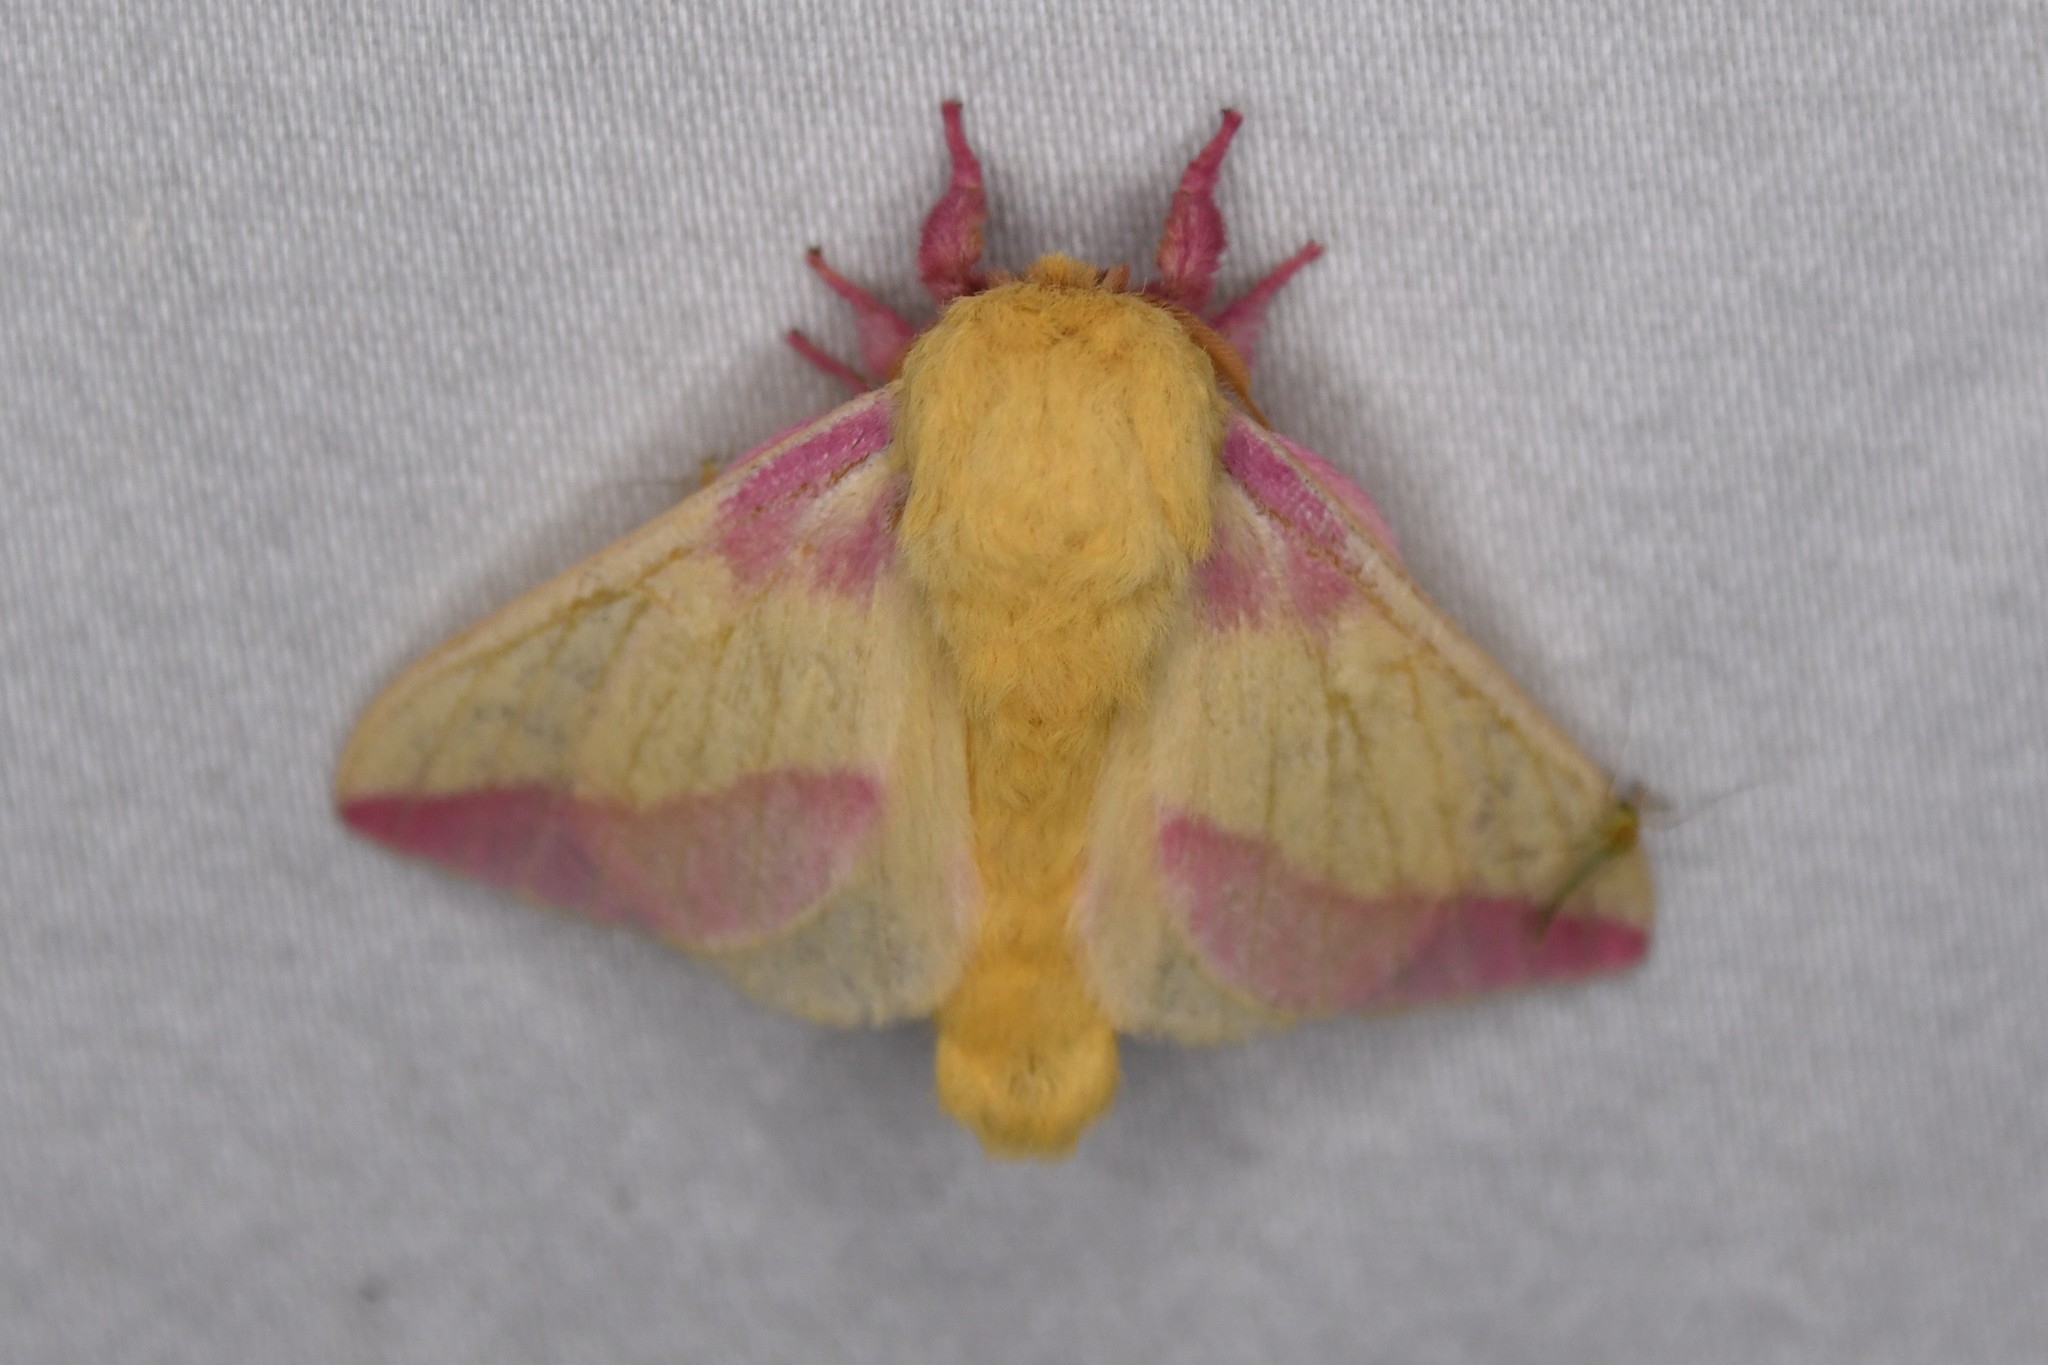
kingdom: Animalia
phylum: Arthropoda
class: Insecta
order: Lepidoptera
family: Saturniidae
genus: Dryocampa
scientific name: Dryocampa rubicunda
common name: Rosy maple moth
